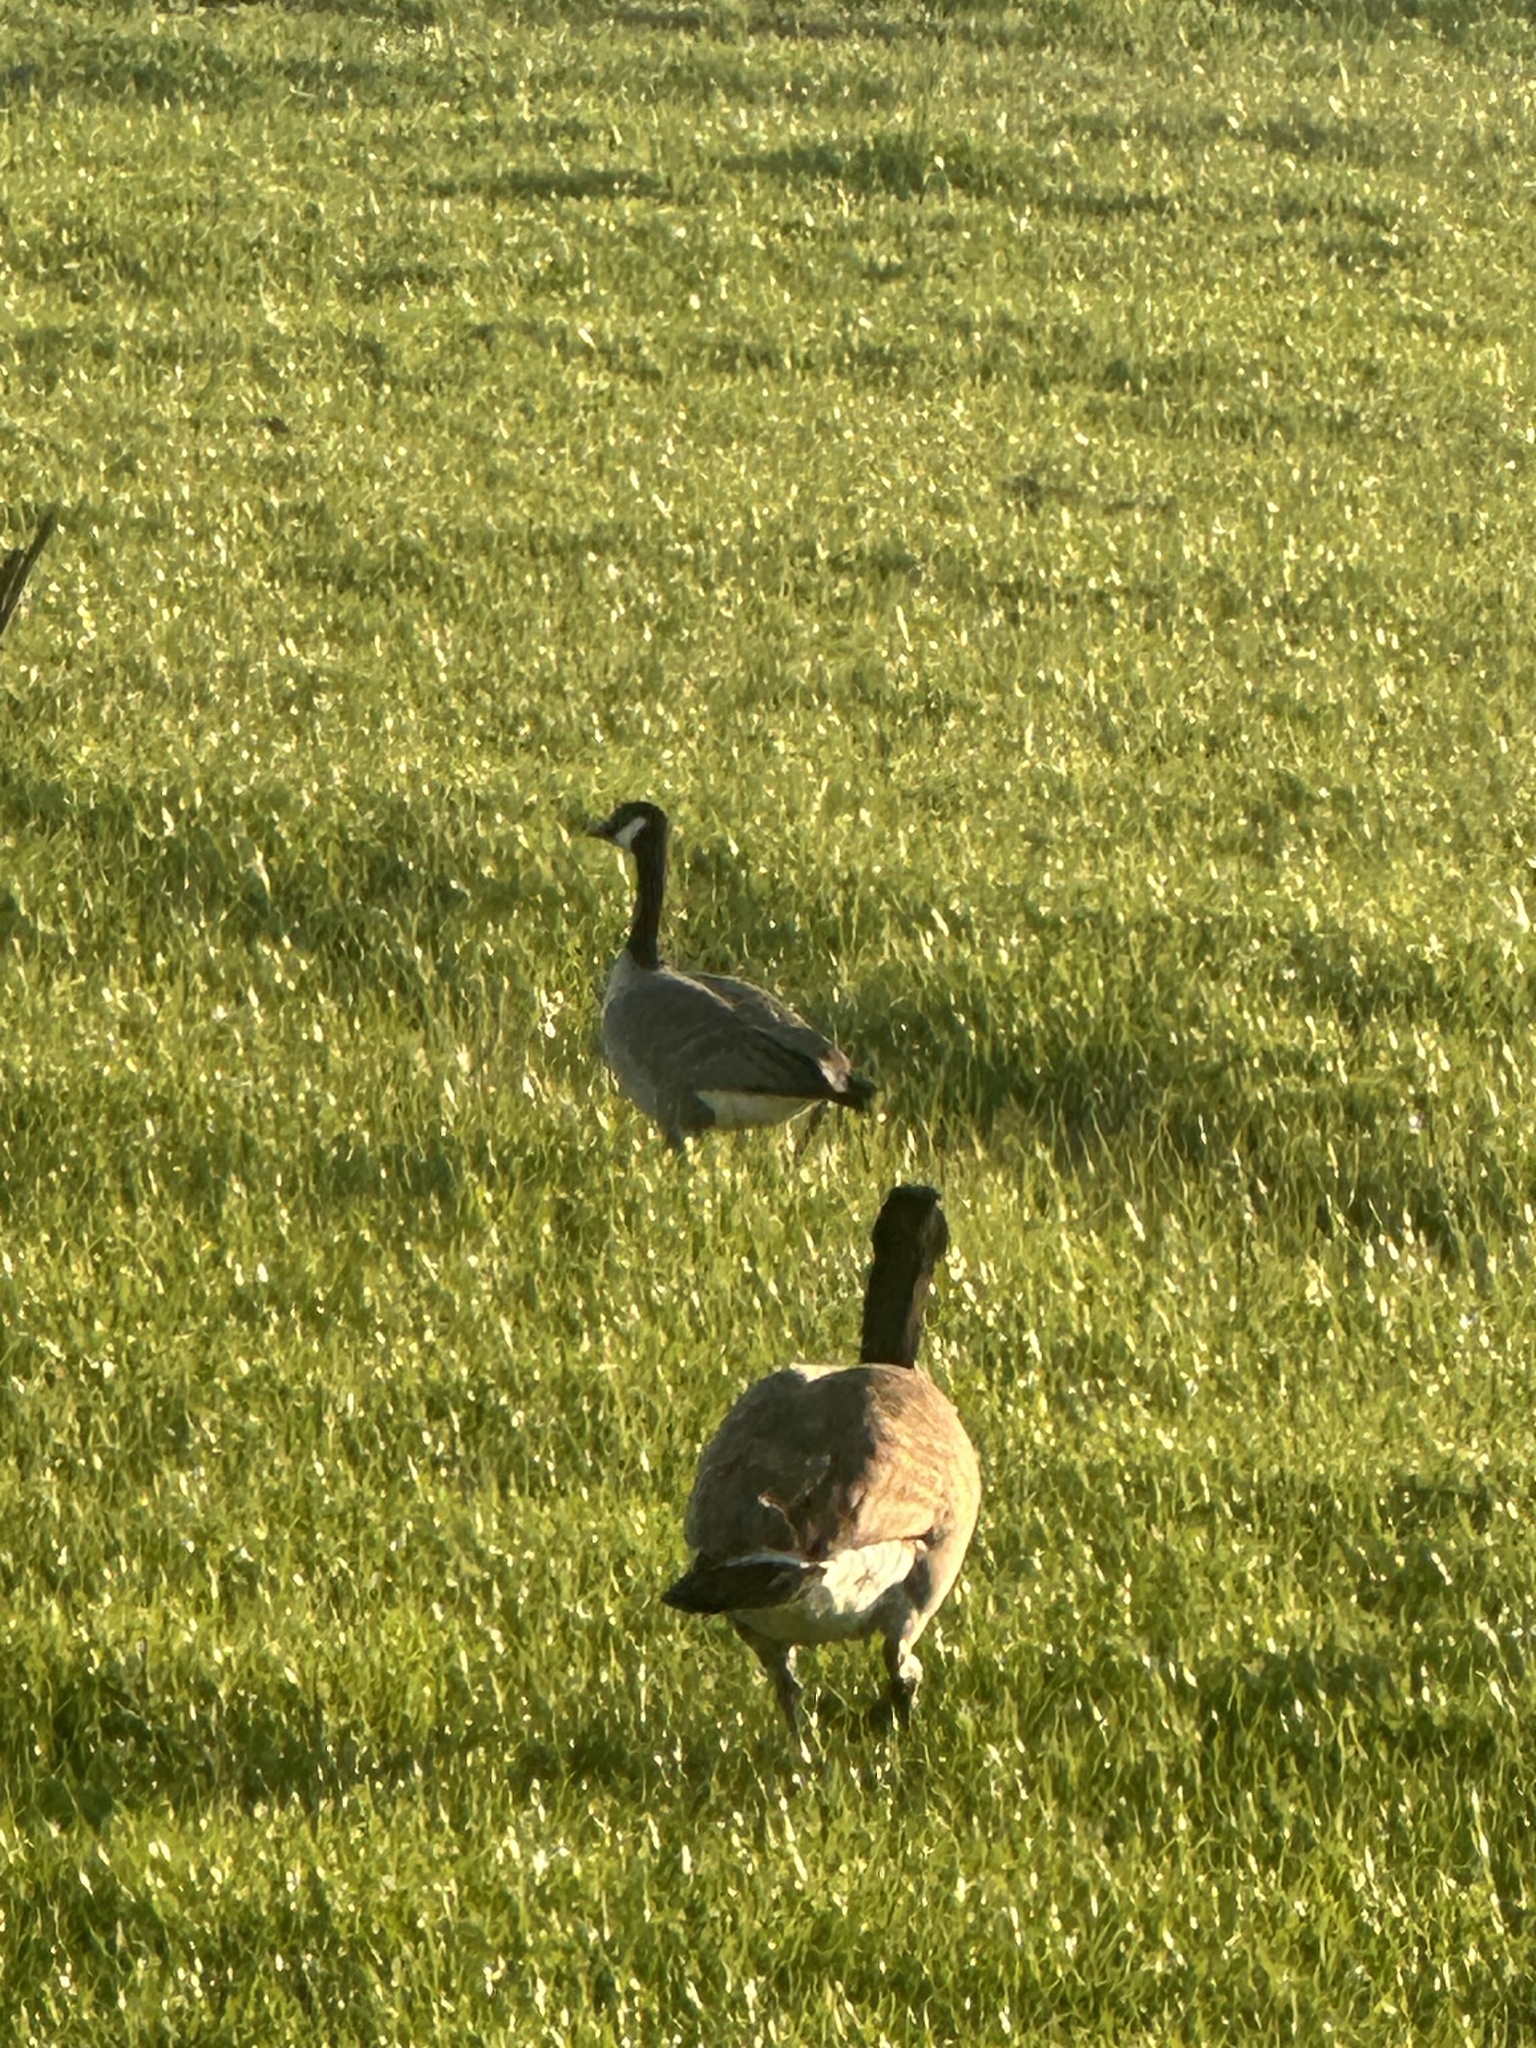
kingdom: Animalia
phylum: Chordata
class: Aves
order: Anseriformes
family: Anatidae
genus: Branta
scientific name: Branta hutchinsii
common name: Cackling goose
